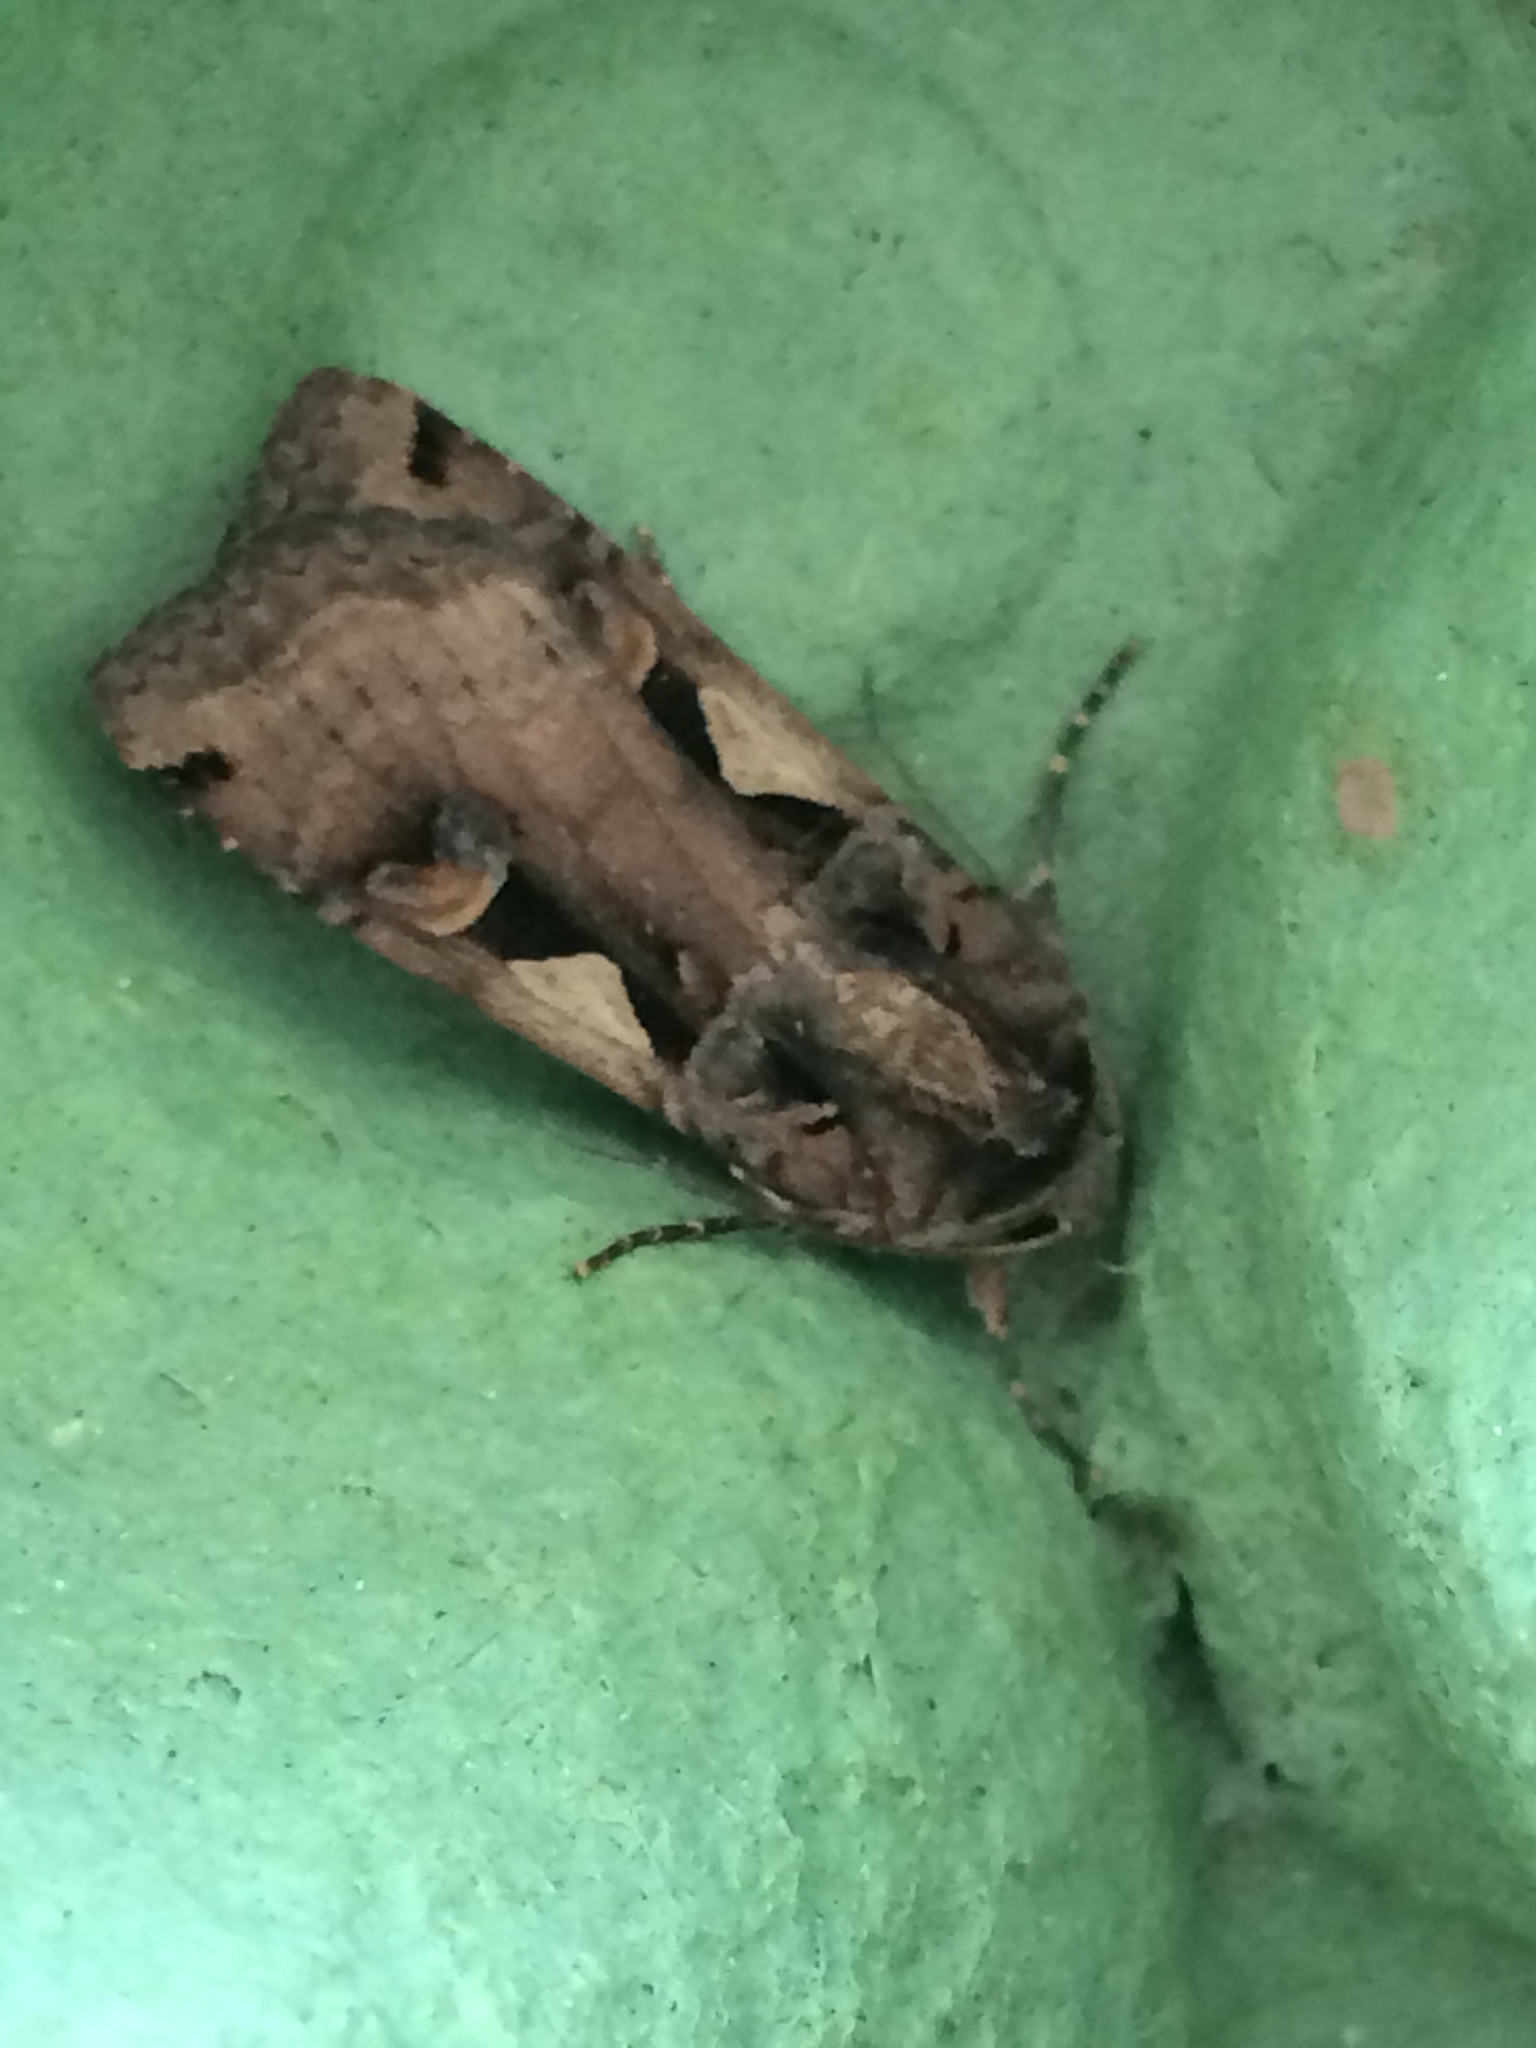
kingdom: Animalia
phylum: Arthropoda
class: Insecta
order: Lepidoptera
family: Noctuidae
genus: Xestia
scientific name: Xestia c-nigrum
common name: Setaceous hebrew character
